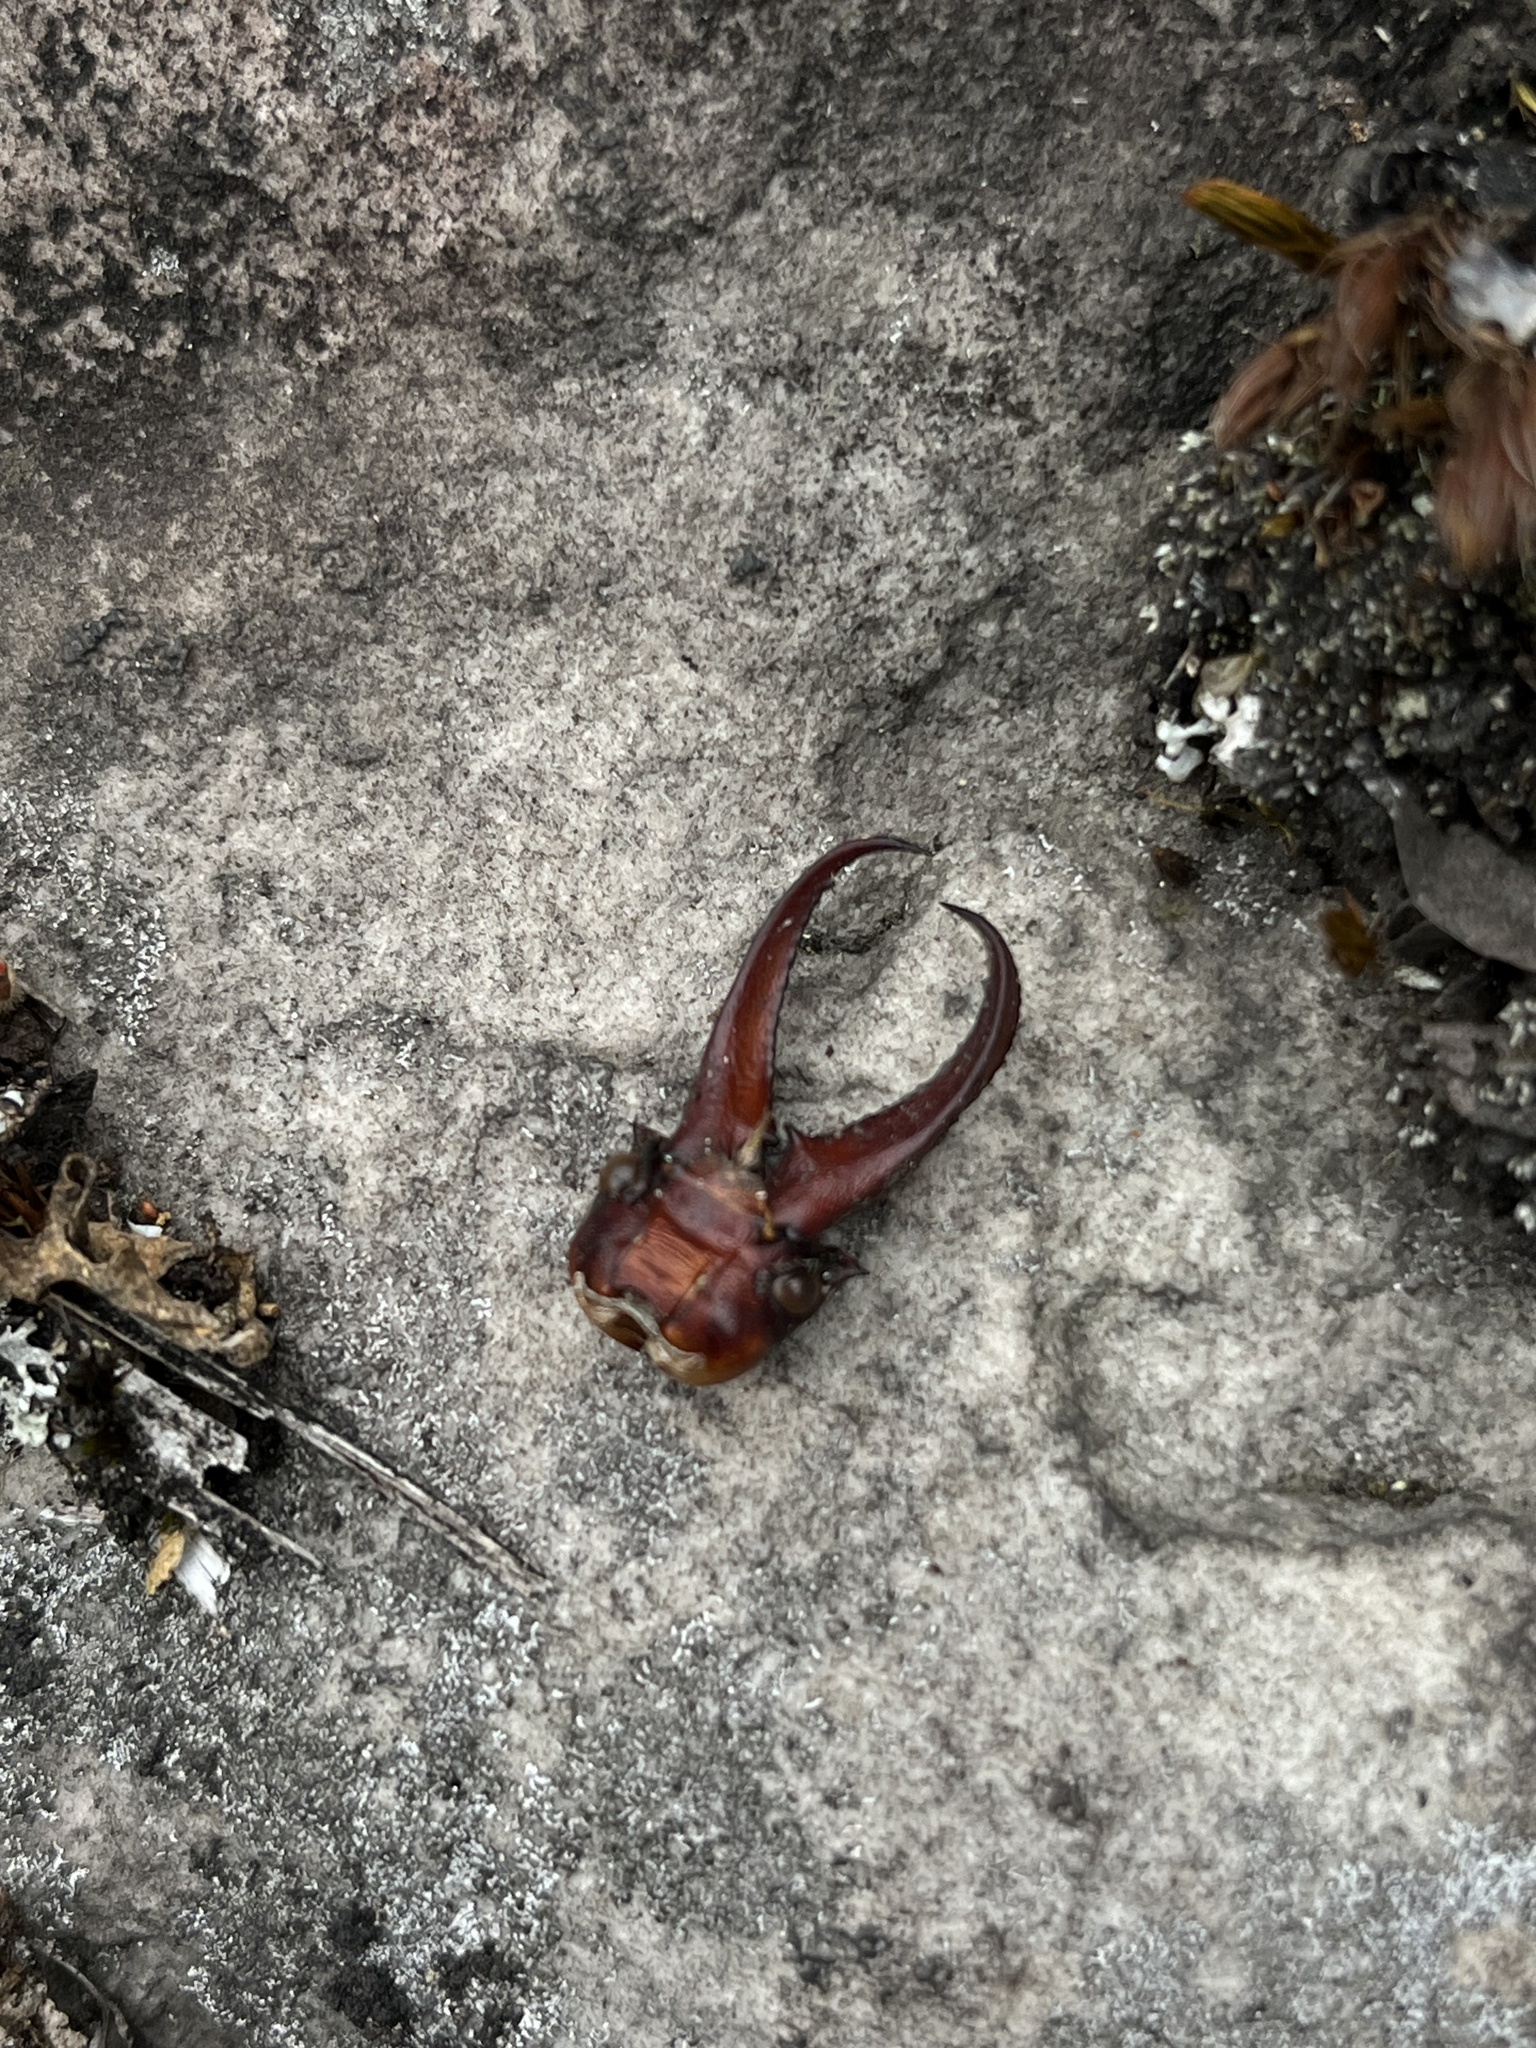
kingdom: Animalia
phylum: Arthropoda
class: Insecta
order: Coleoptera
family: Lucanidae
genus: Sphaenognathus
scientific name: Sphaenognathus feisthamelii
